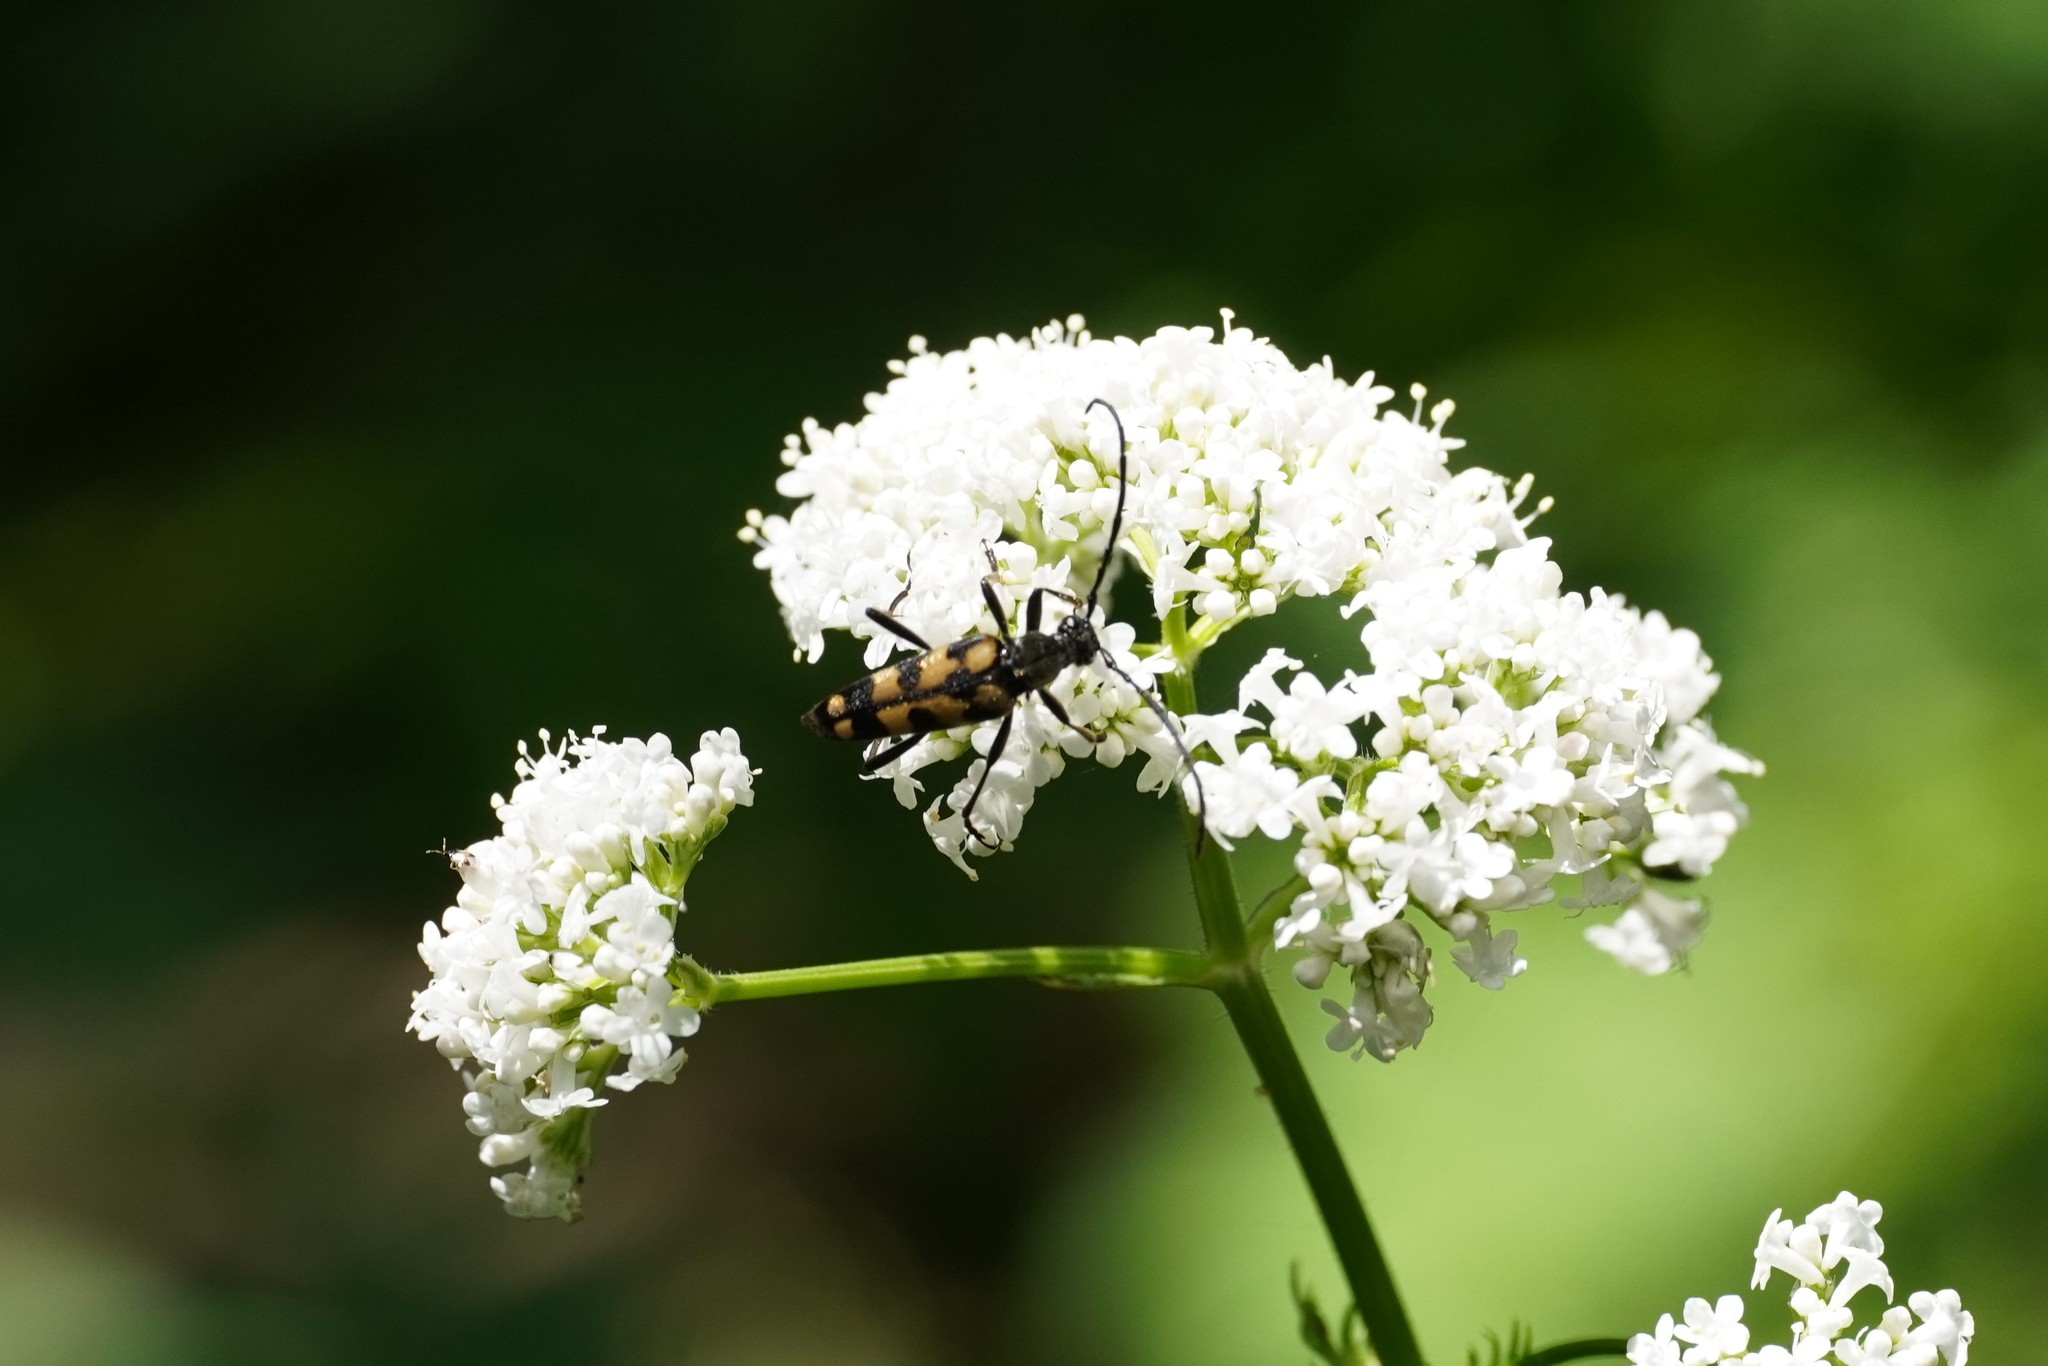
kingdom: Animalia
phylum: Arthropoda
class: Insecta
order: Coleoptera
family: Cerambycidae
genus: Leptura
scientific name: Leptura quadrifasciata
